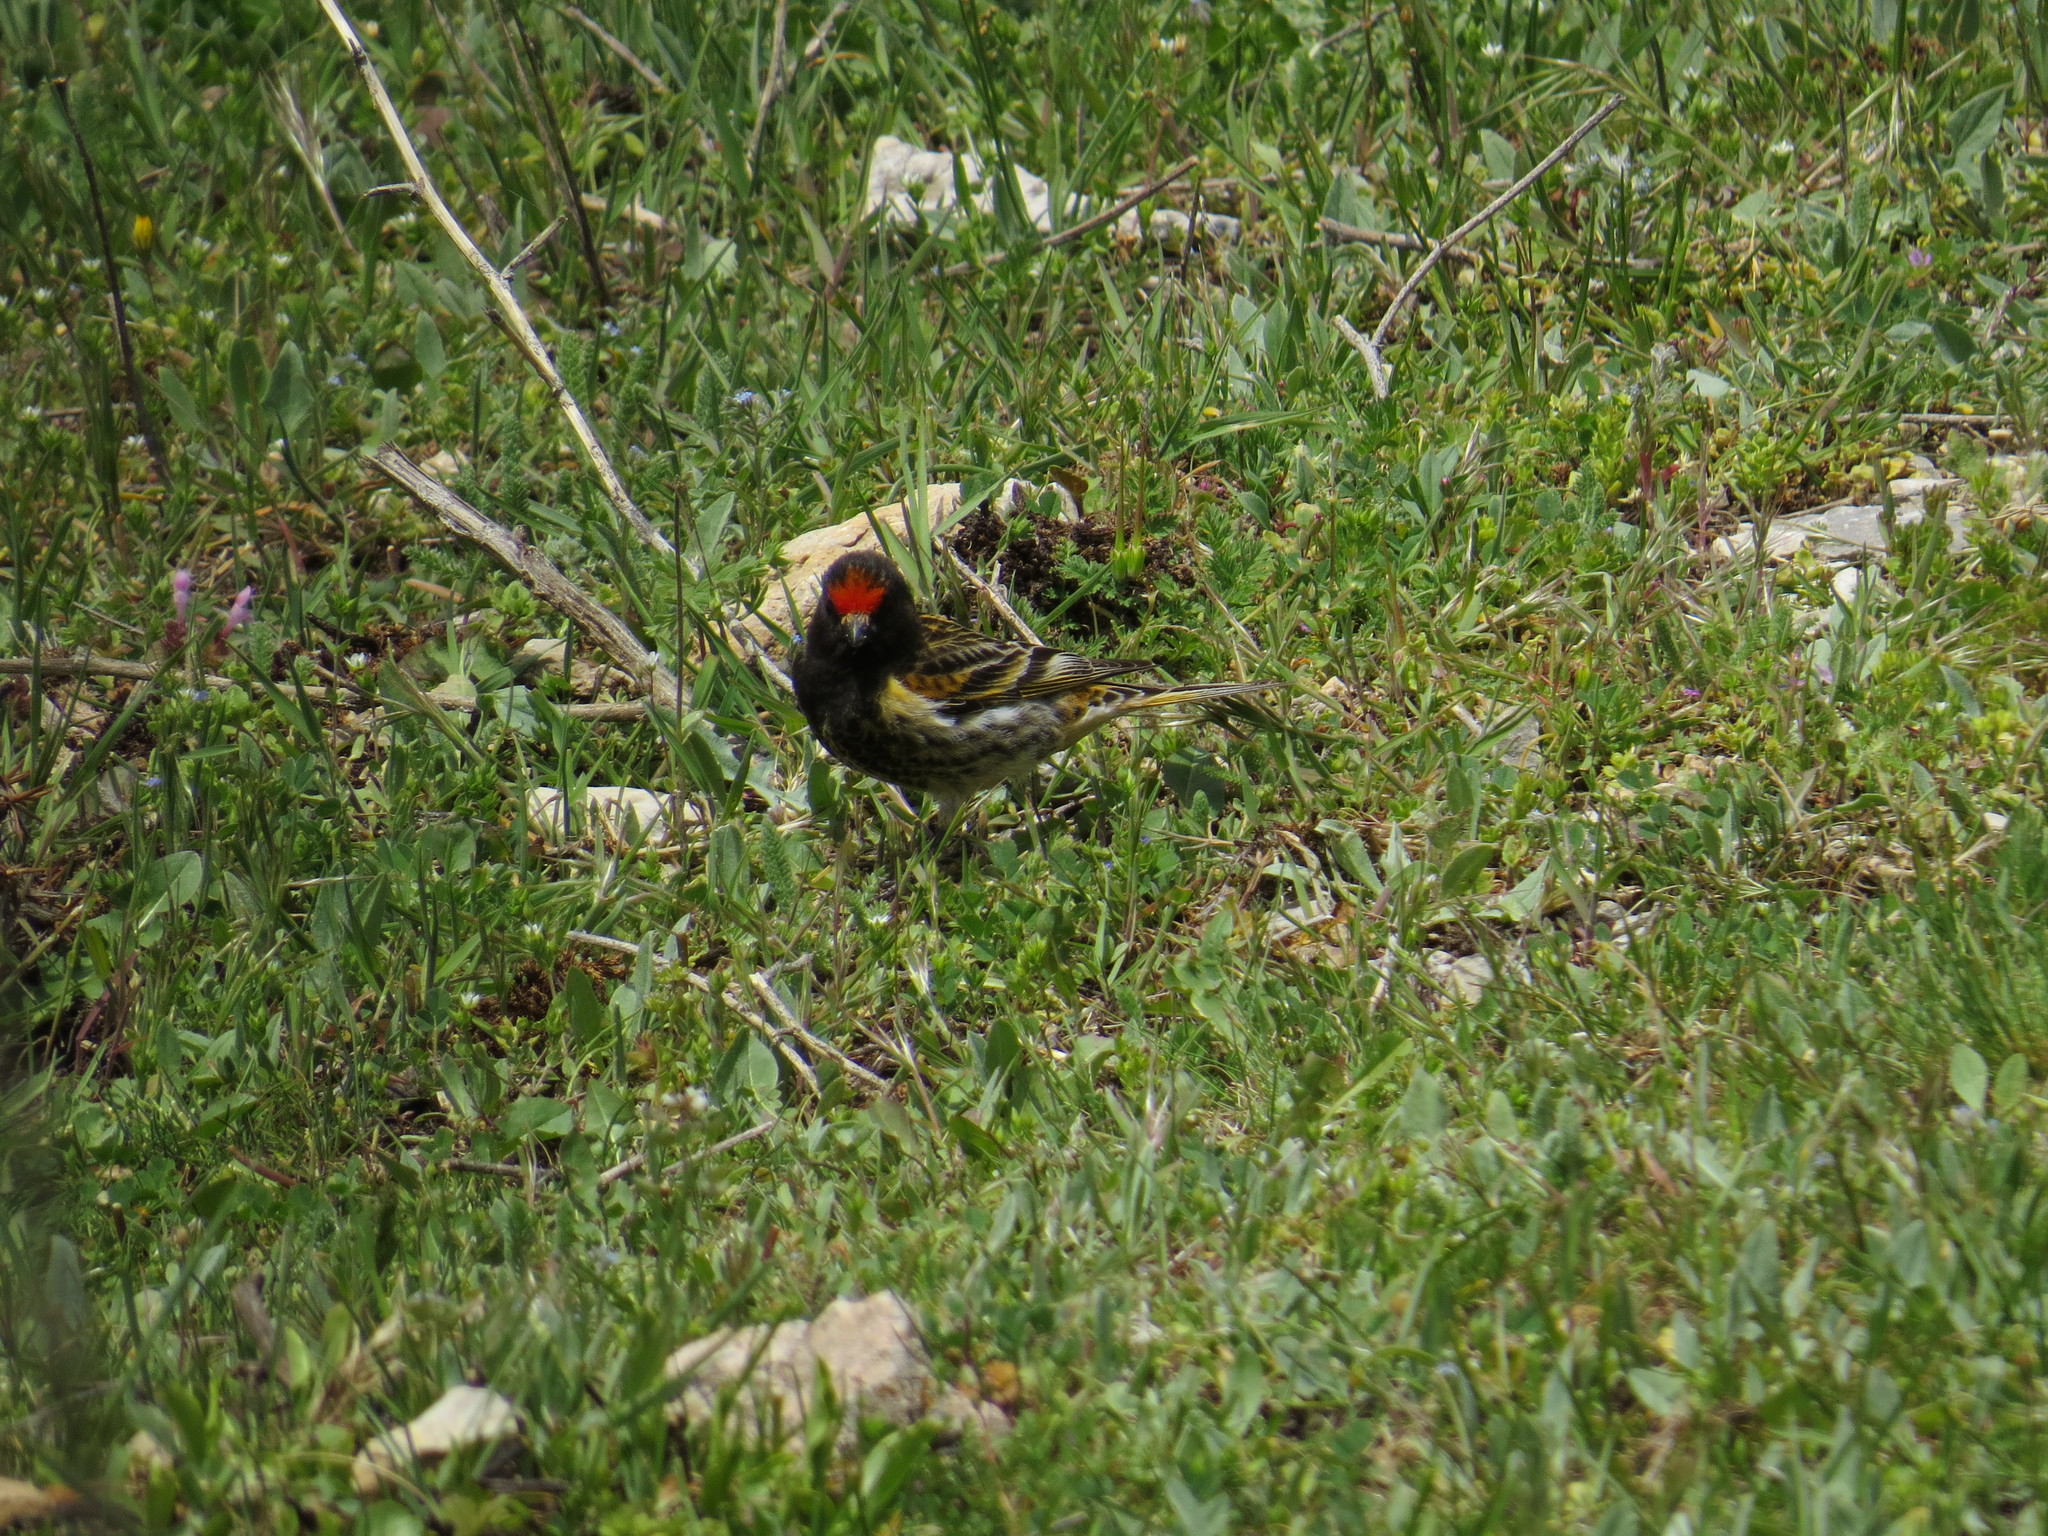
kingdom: Animalia
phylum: Chordata
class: Aves
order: Passeriformes
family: Fringillidae
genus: Serinus
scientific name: Serinus pusillus
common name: Red-fronted serin
